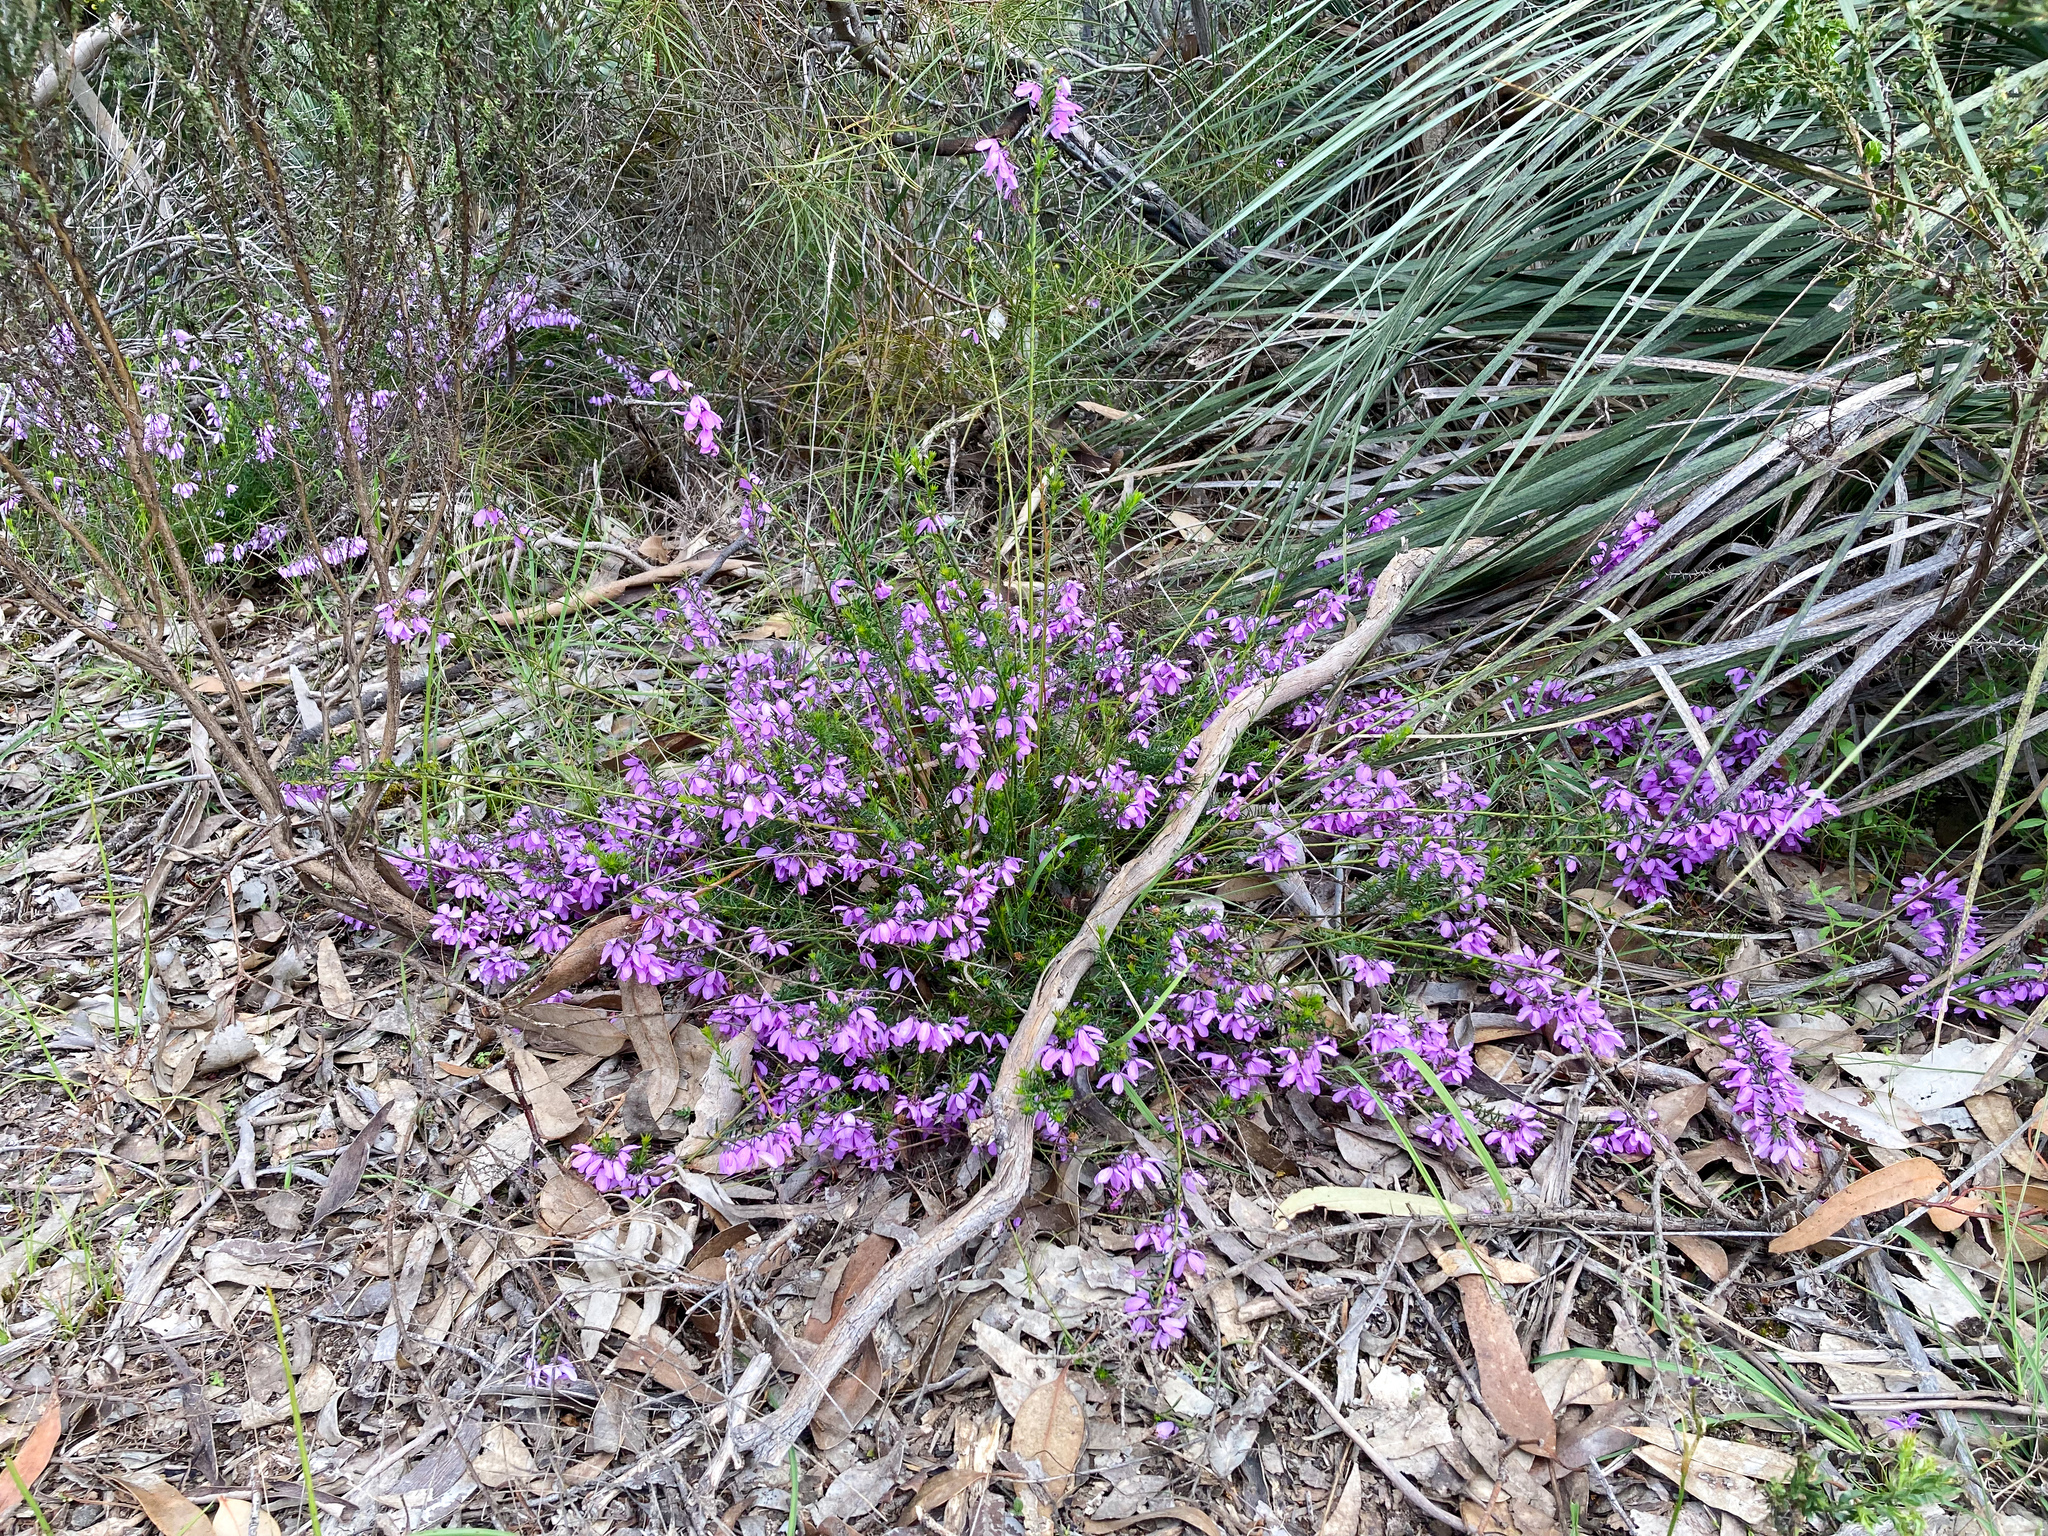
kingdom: Plantae
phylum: Tracheophyta
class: Magnoliopsida
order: Oxalidales
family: Elaeocarpaceae
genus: Tetratheca
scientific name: Tetratheca pilosa
